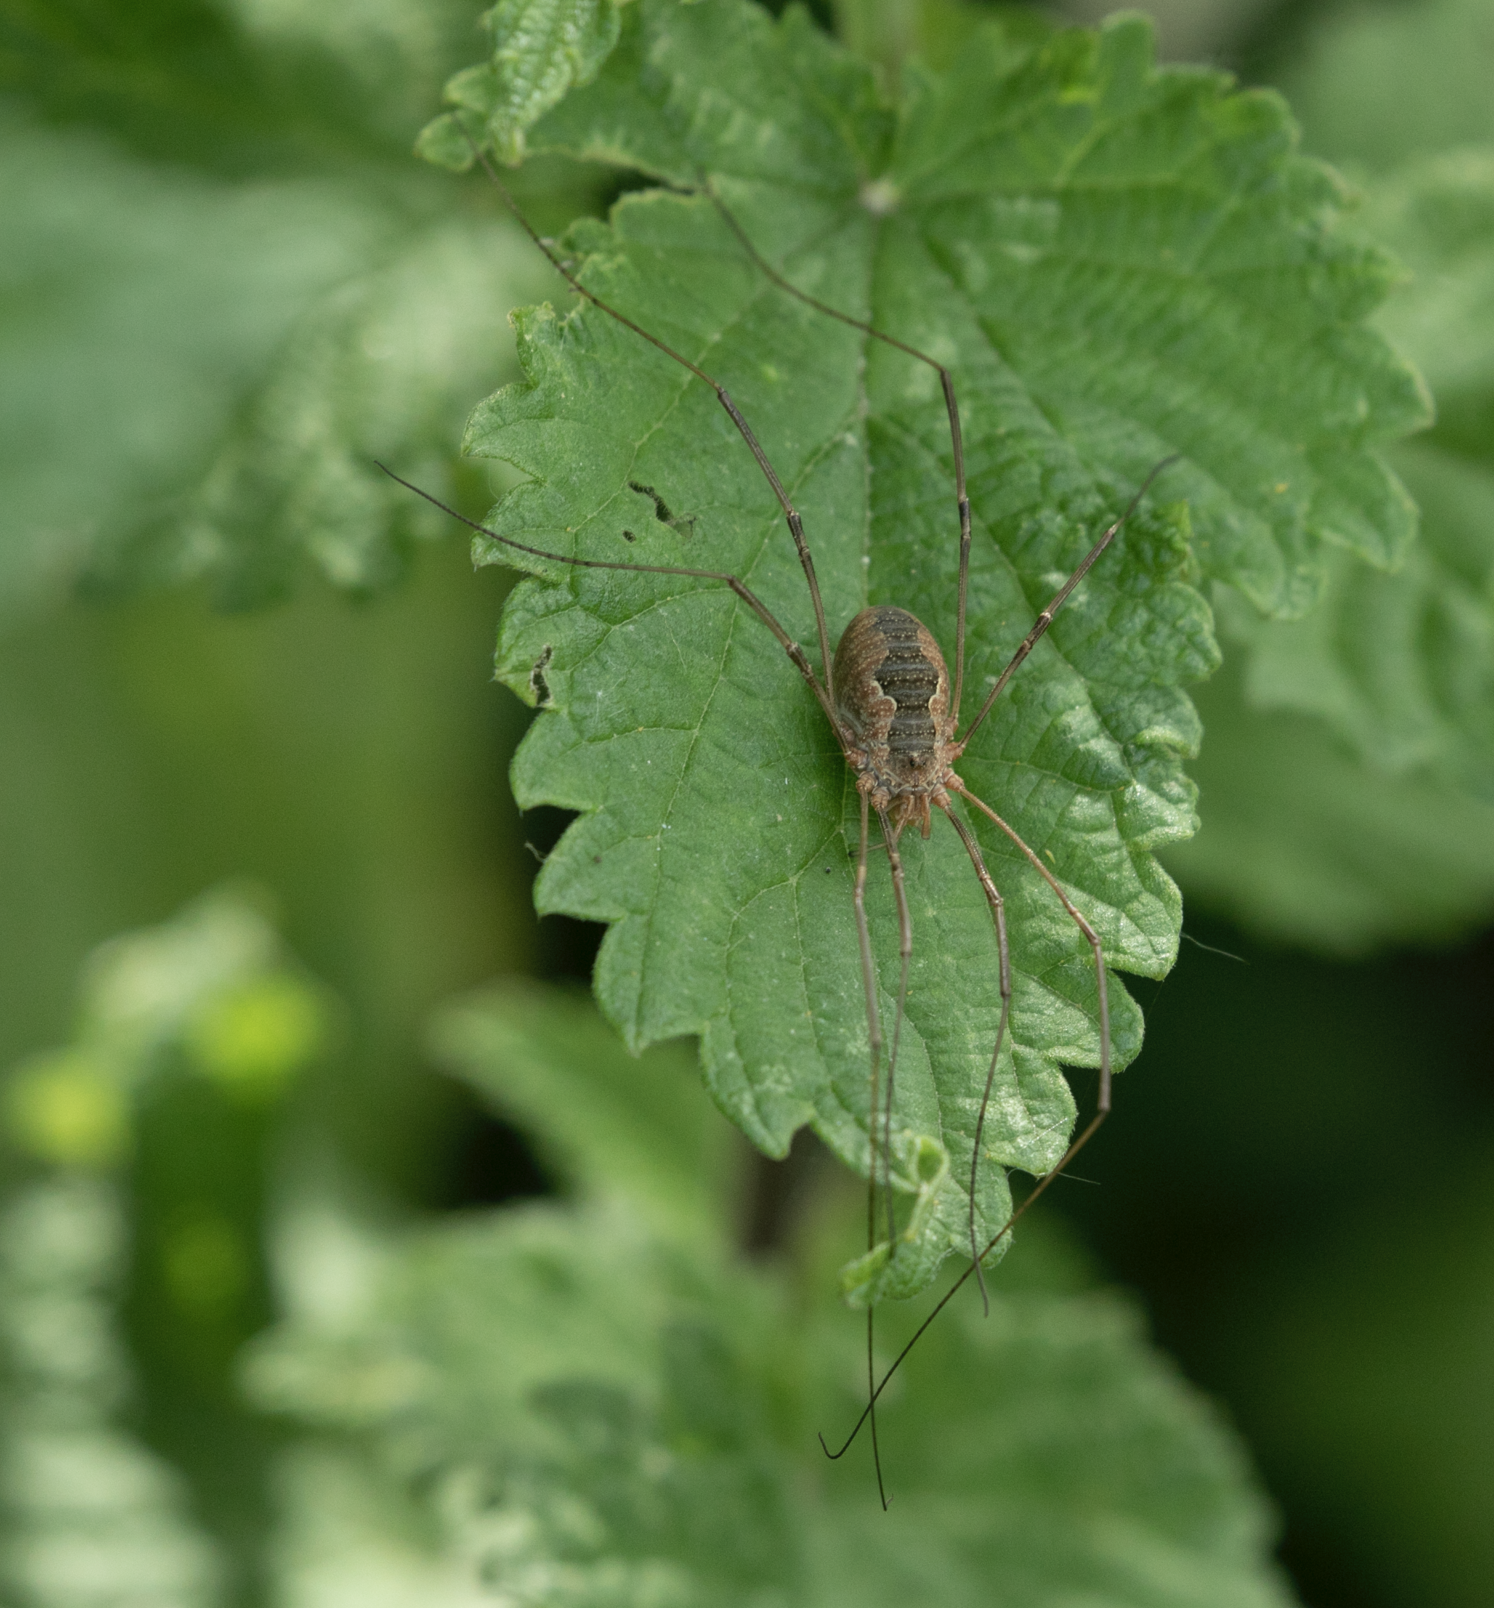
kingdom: Animalia
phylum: Arthropoda
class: Arachnida
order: Opiliones
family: Phalangiidae
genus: Phalangium
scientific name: Phalangium opilio
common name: Daddy longleg
